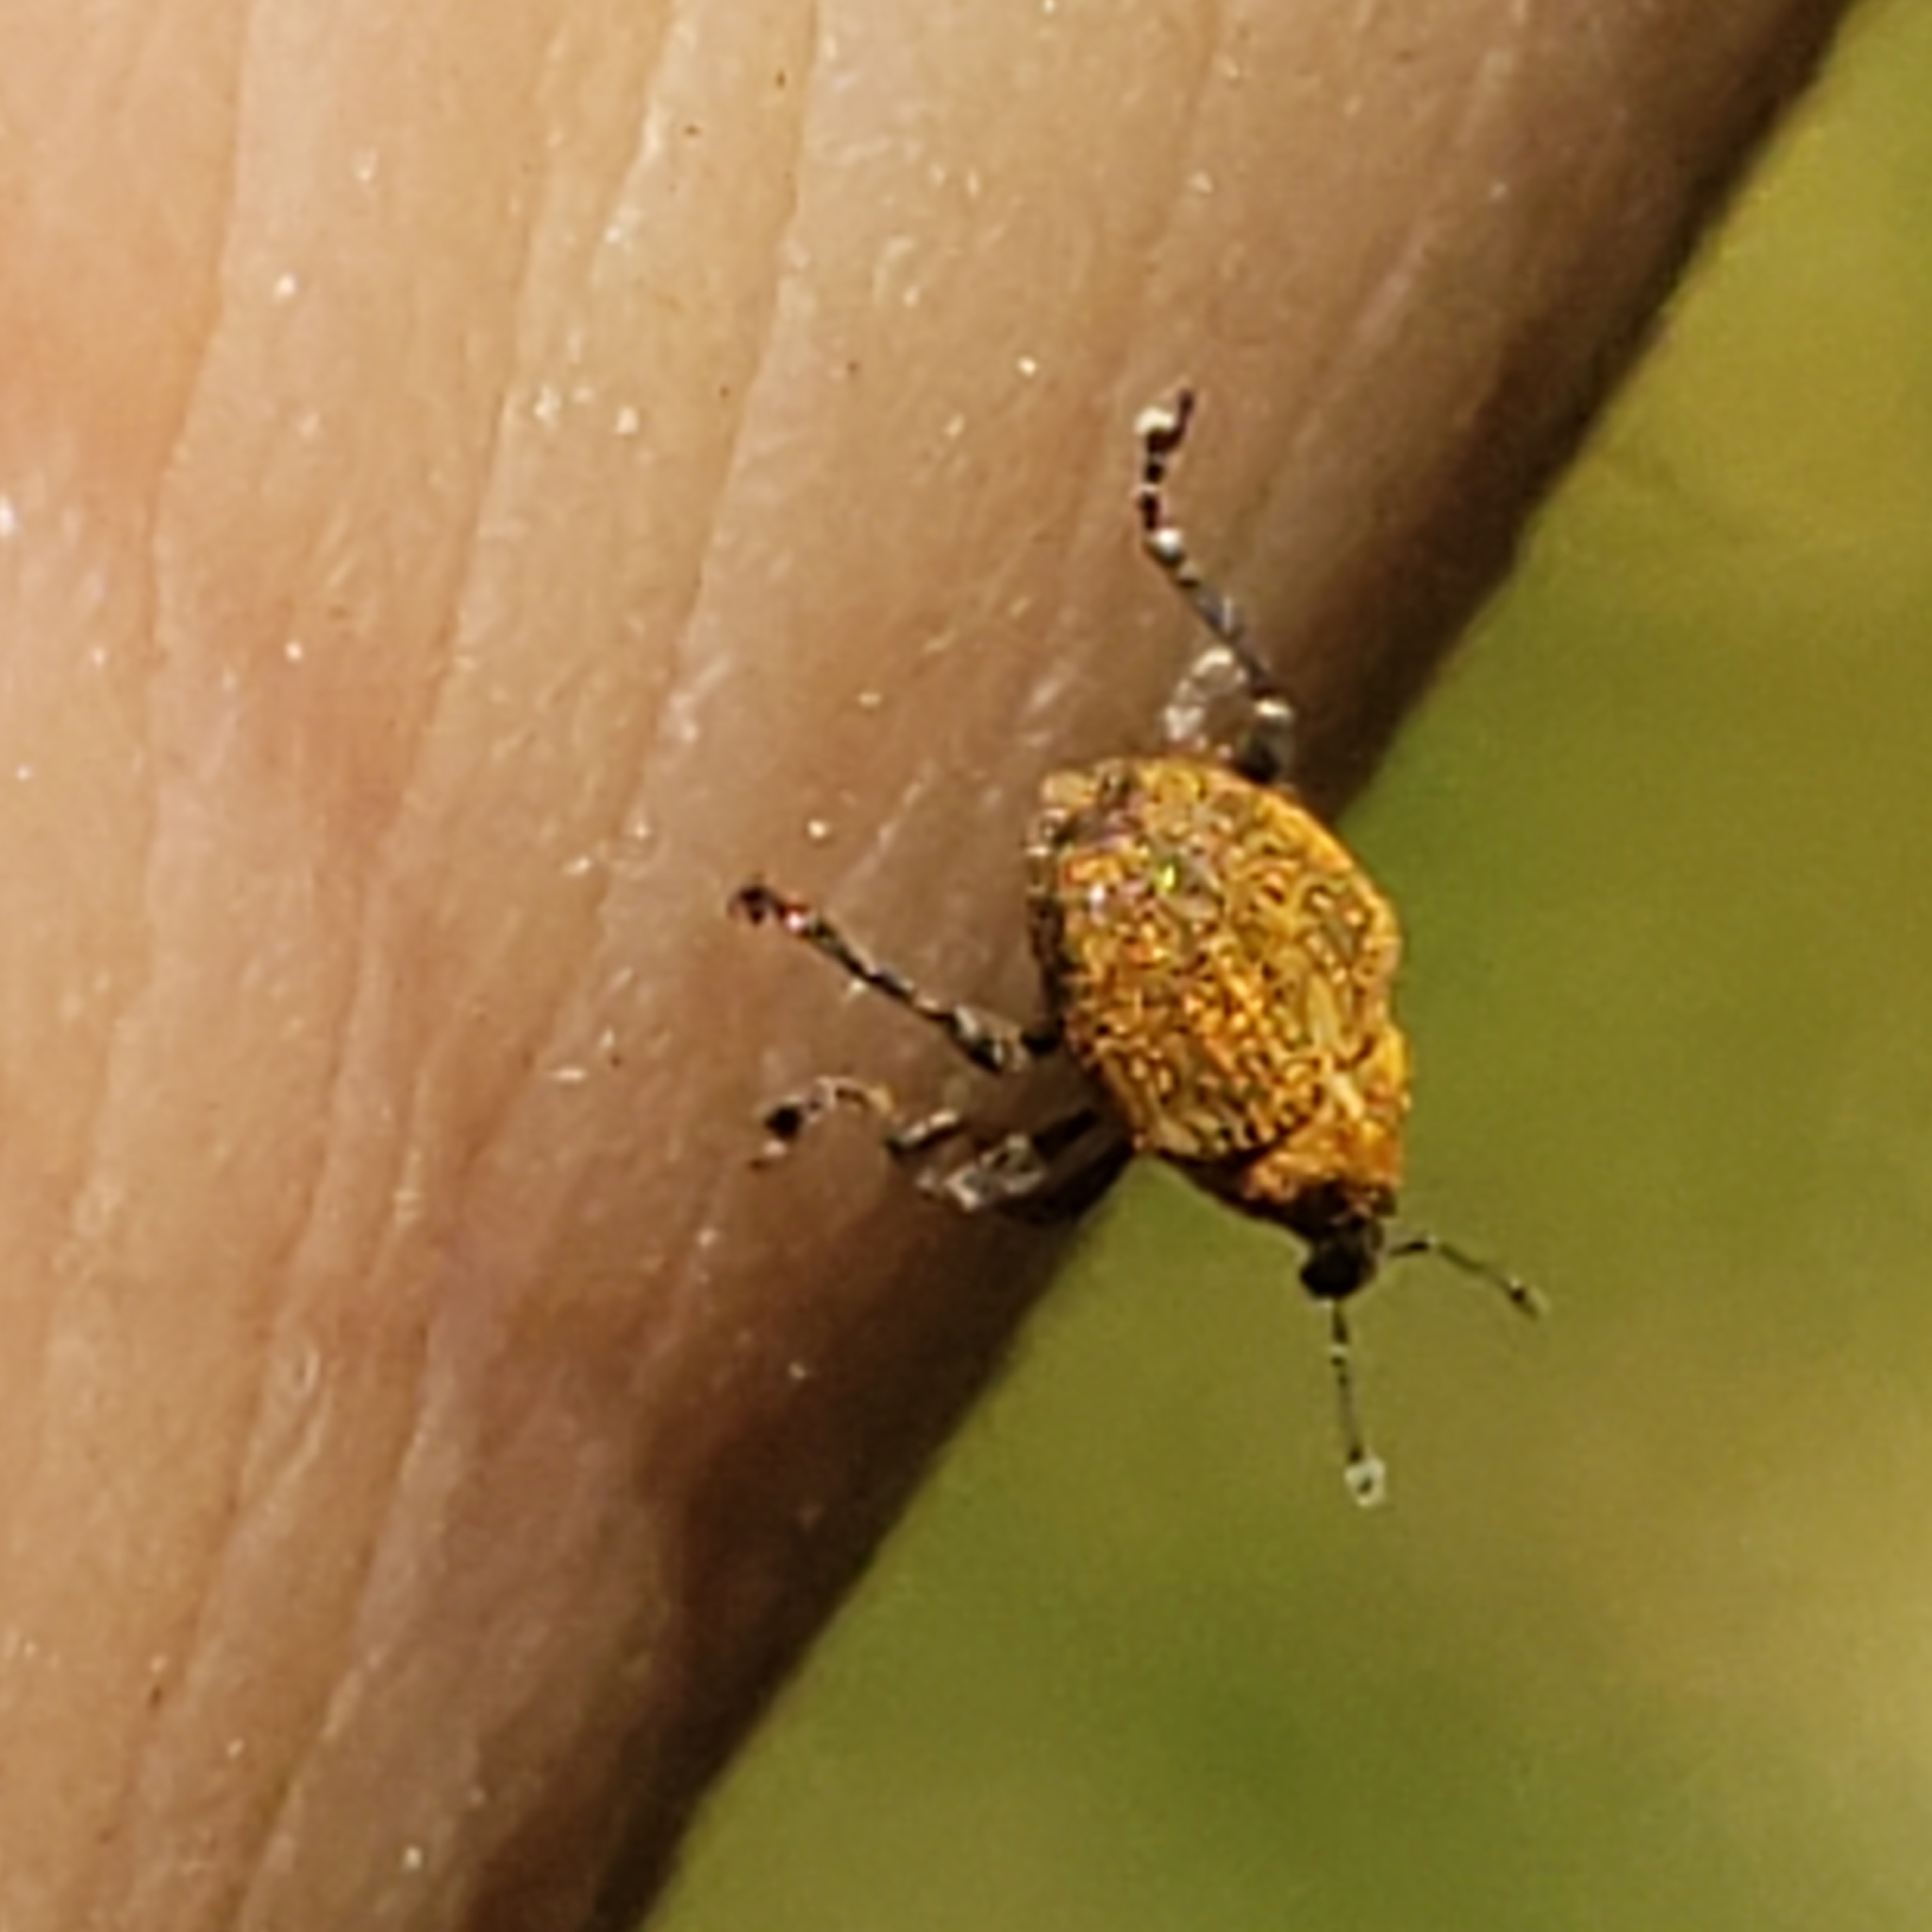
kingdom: Animalia
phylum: Arthropoda
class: Insecta
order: Coleoptera
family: Curculionidae
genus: Rhinoncomimus
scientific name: Rhinoncomimus latipes
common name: Chinese weevil
